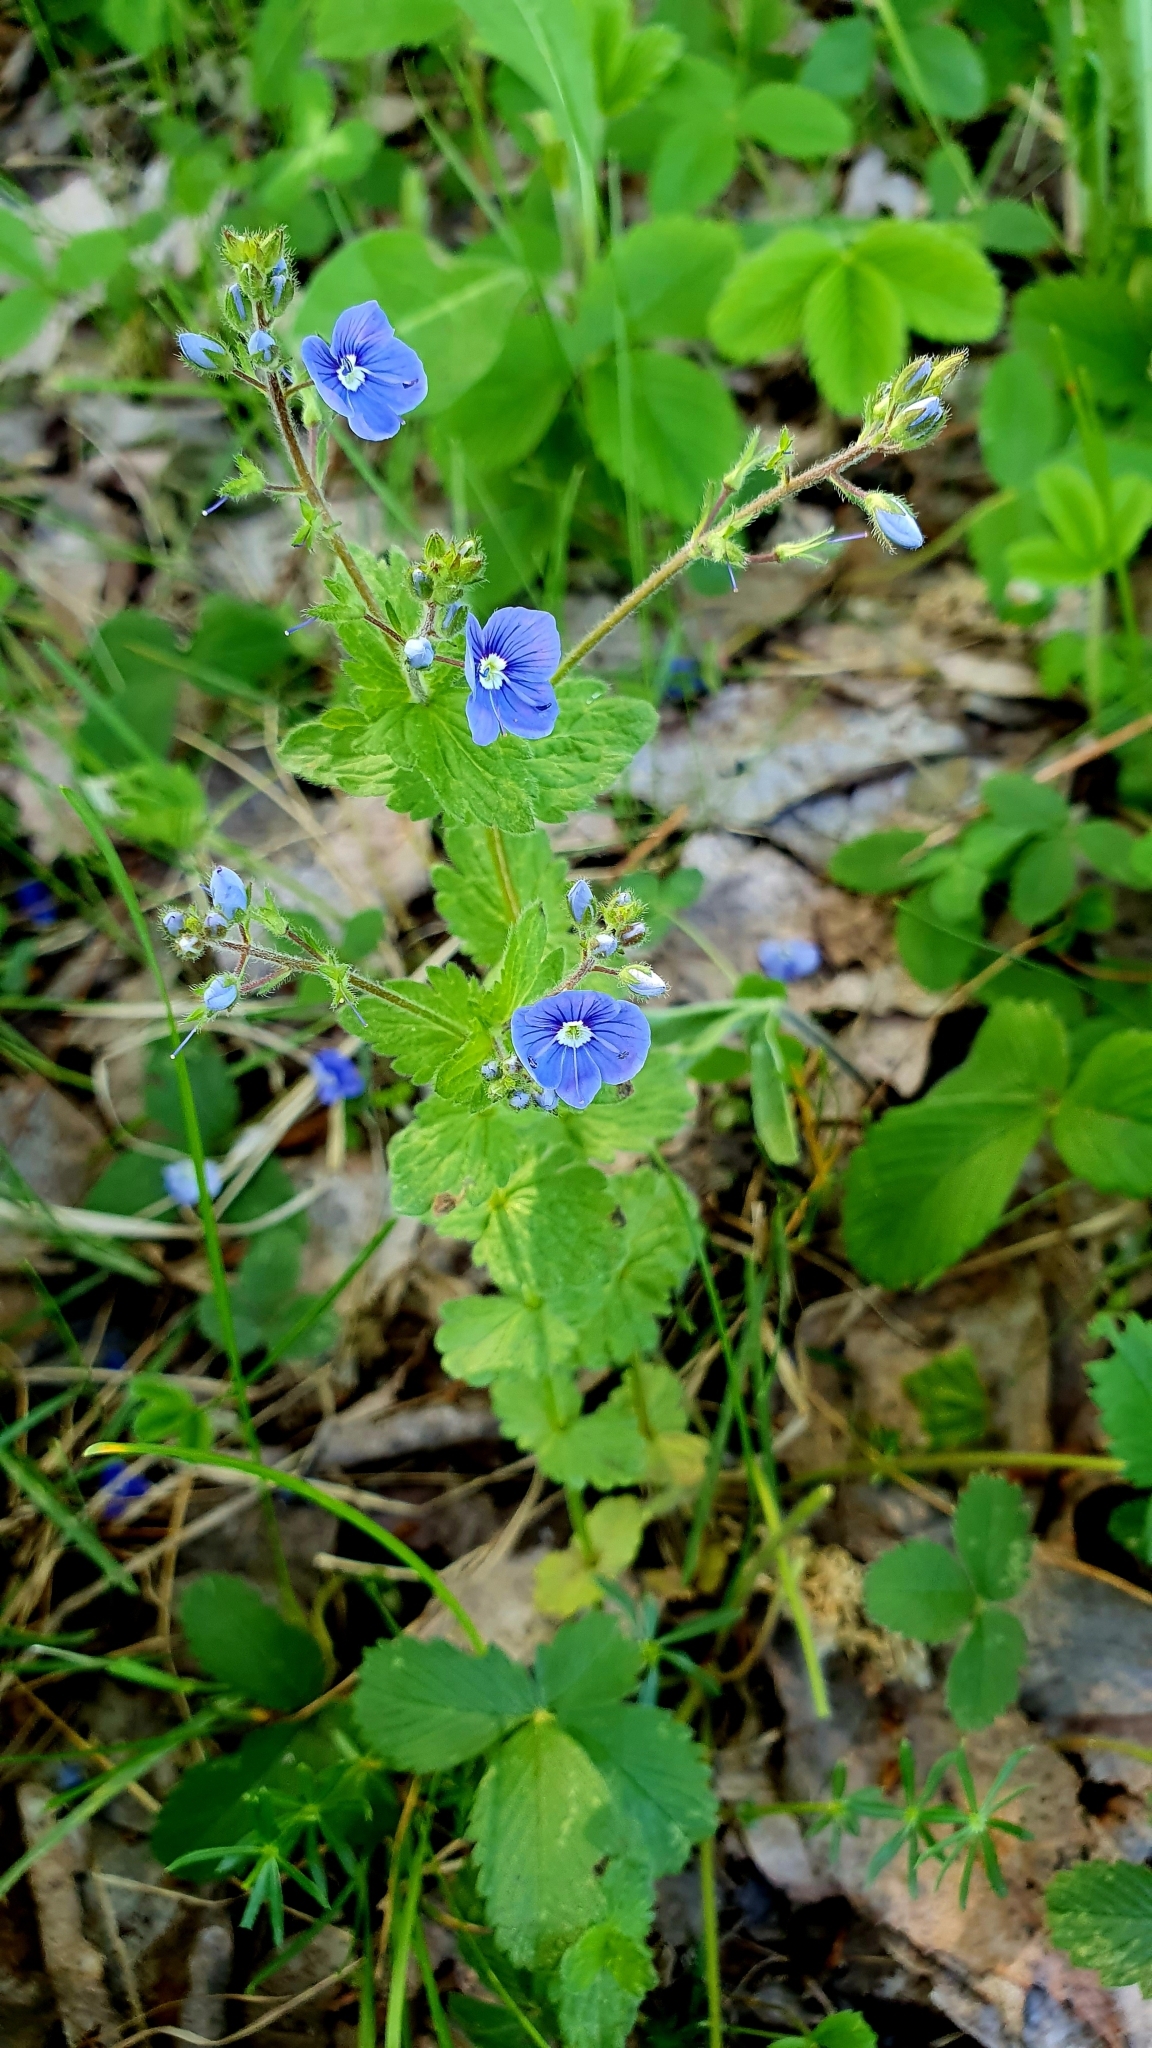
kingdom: Plantae
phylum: Tracheophyta
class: Magnoliopsida
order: Lamiales
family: Plantaginaceae
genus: Veronica
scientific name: Veronica chamaedrys
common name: Germander speedwell
